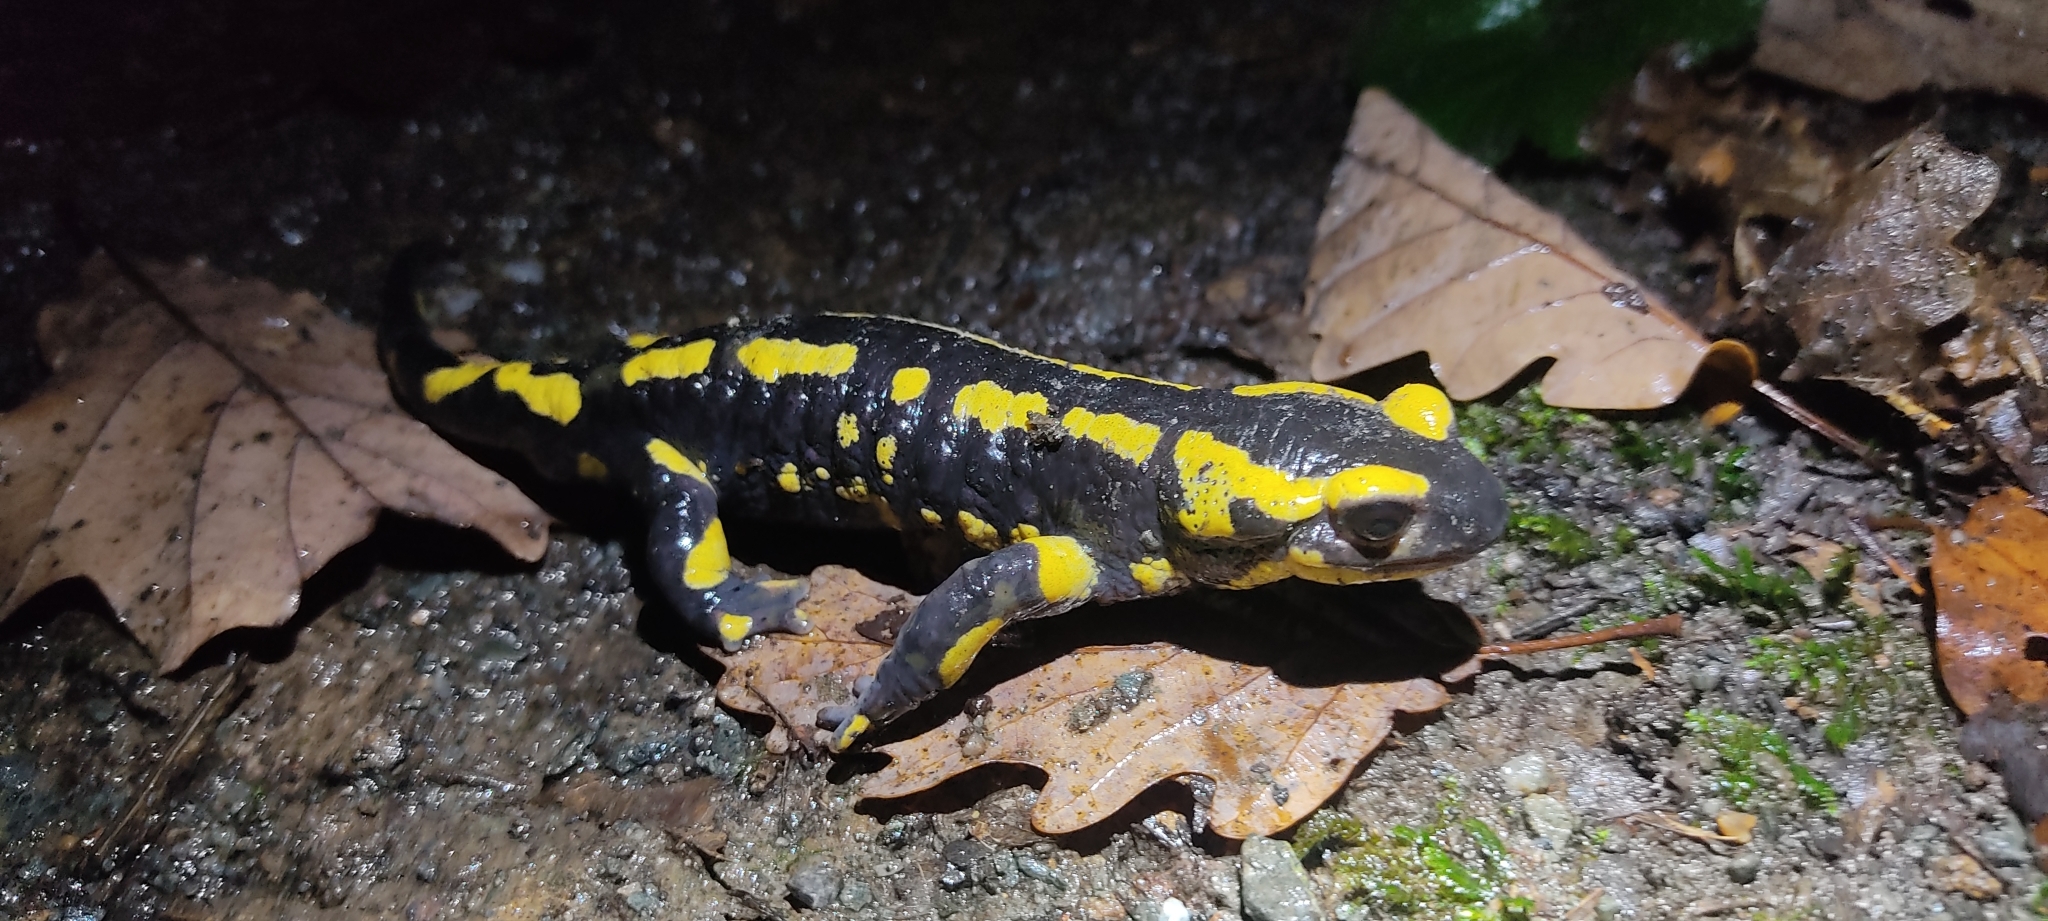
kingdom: Animalia
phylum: Chordata
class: Amphibia
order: Caudata
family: Salamandridae
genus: Salamandra
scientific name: Salamandra salamandra
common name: Fire salamander
